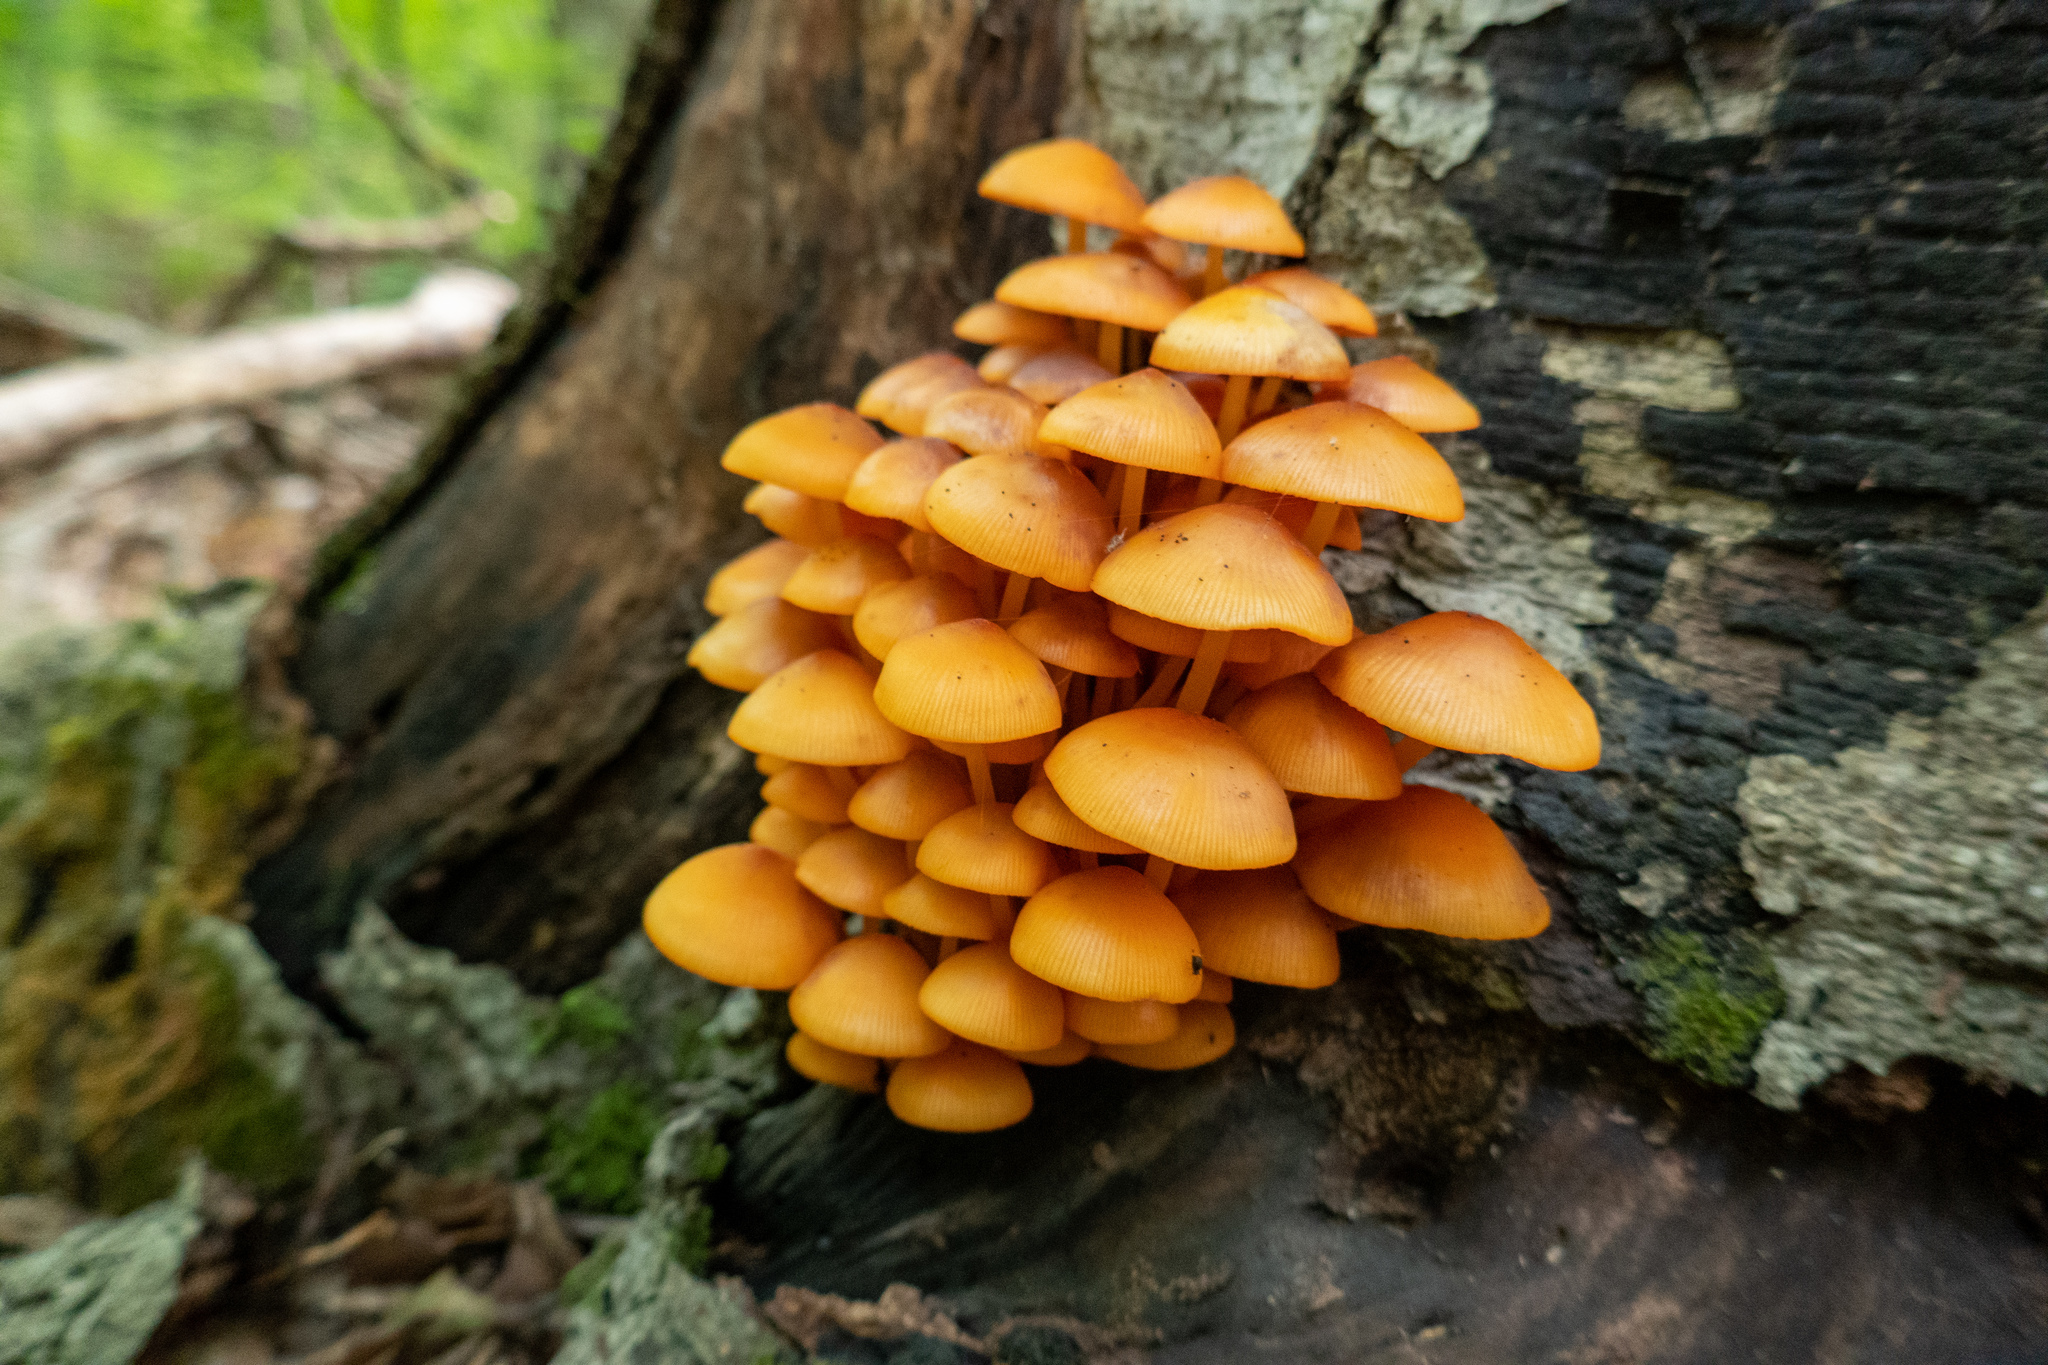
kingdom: Fungi
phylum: Basidiomycota
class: Agaricomycetes
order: Agaricales
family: Mycenaceae
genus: Mycena
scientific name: Mycena leaiana
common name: Orange mycena
